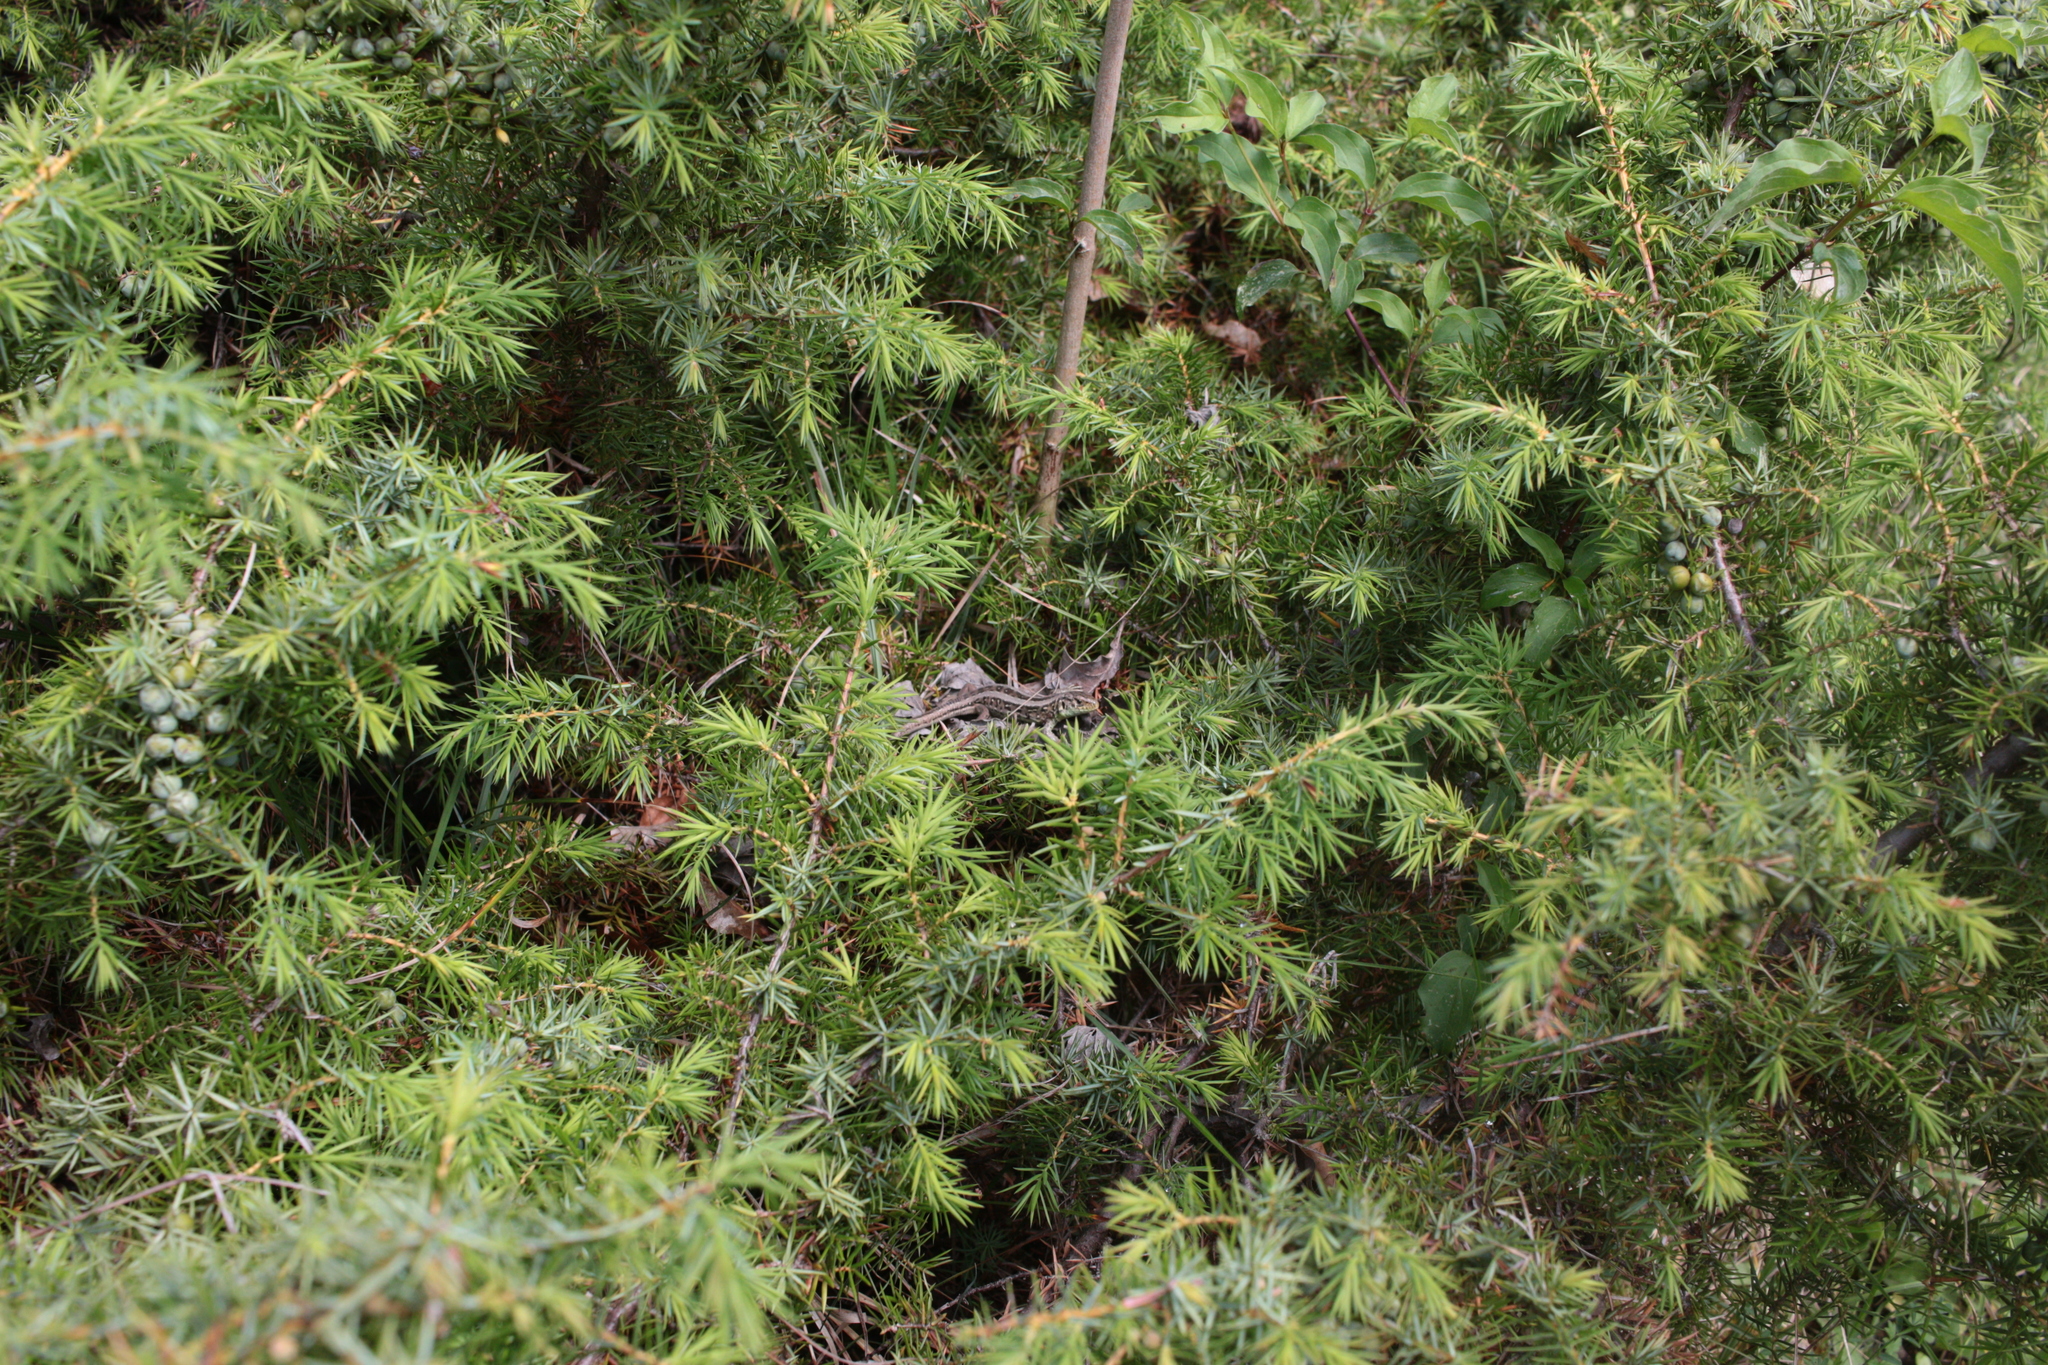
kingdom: Animalia
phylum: Chordata
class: Squamata
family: Lacertidae
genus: Lacerta
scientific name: Lacerta agilis
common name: Sand lizard
